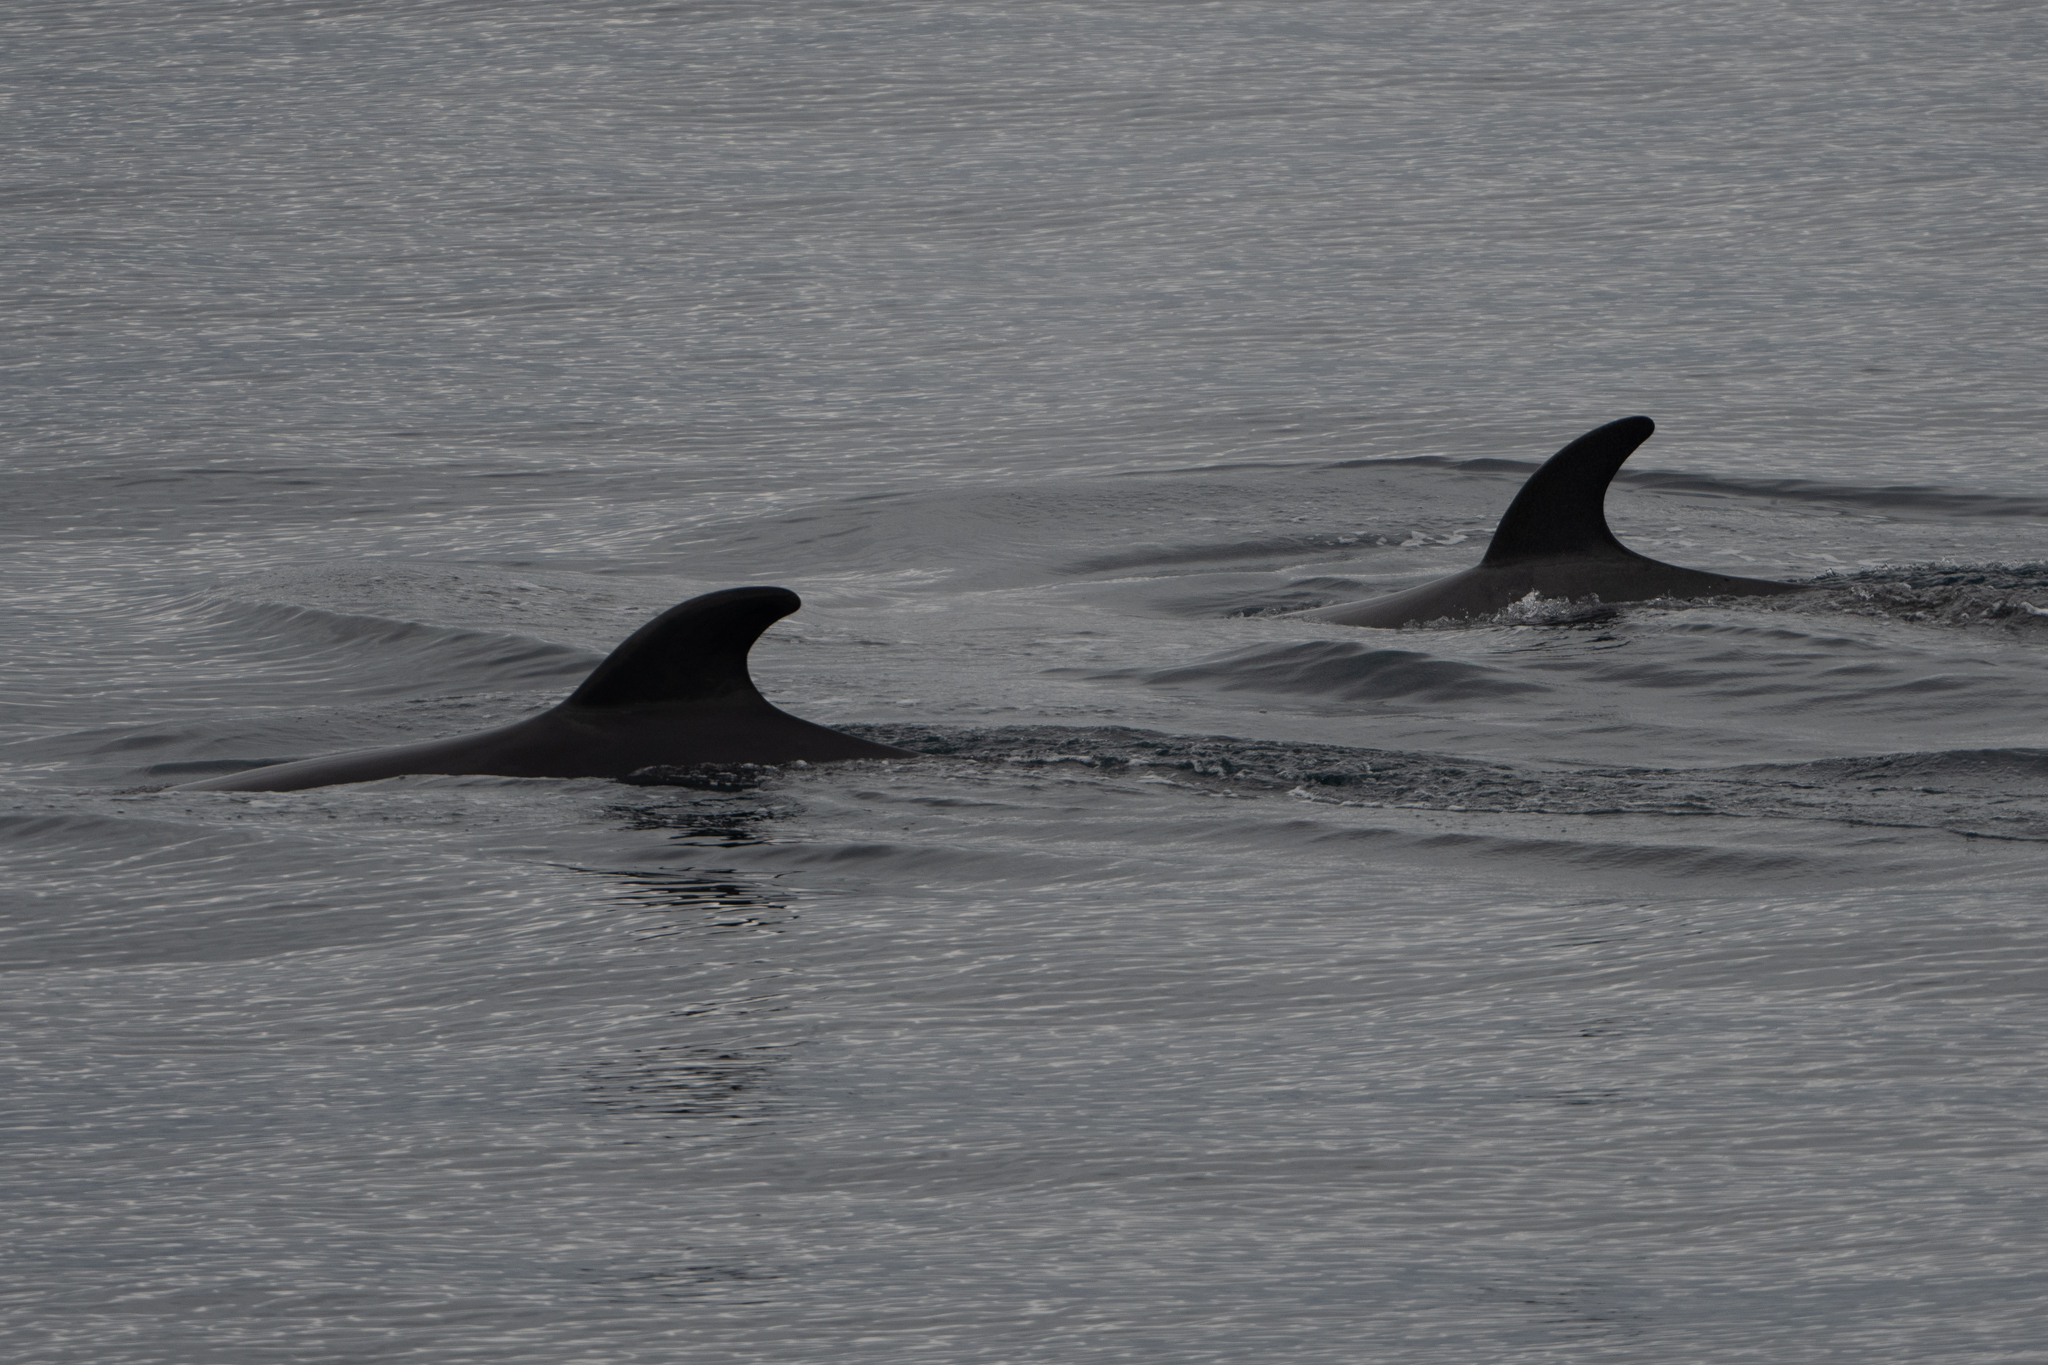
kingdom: Animalia
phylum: Chordata
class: Mammalia
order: Cetacea
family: Balaenopteridae
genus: Balaenoptera
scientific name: Balaenoptera bonaerensis
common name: Antarctic minke whale
